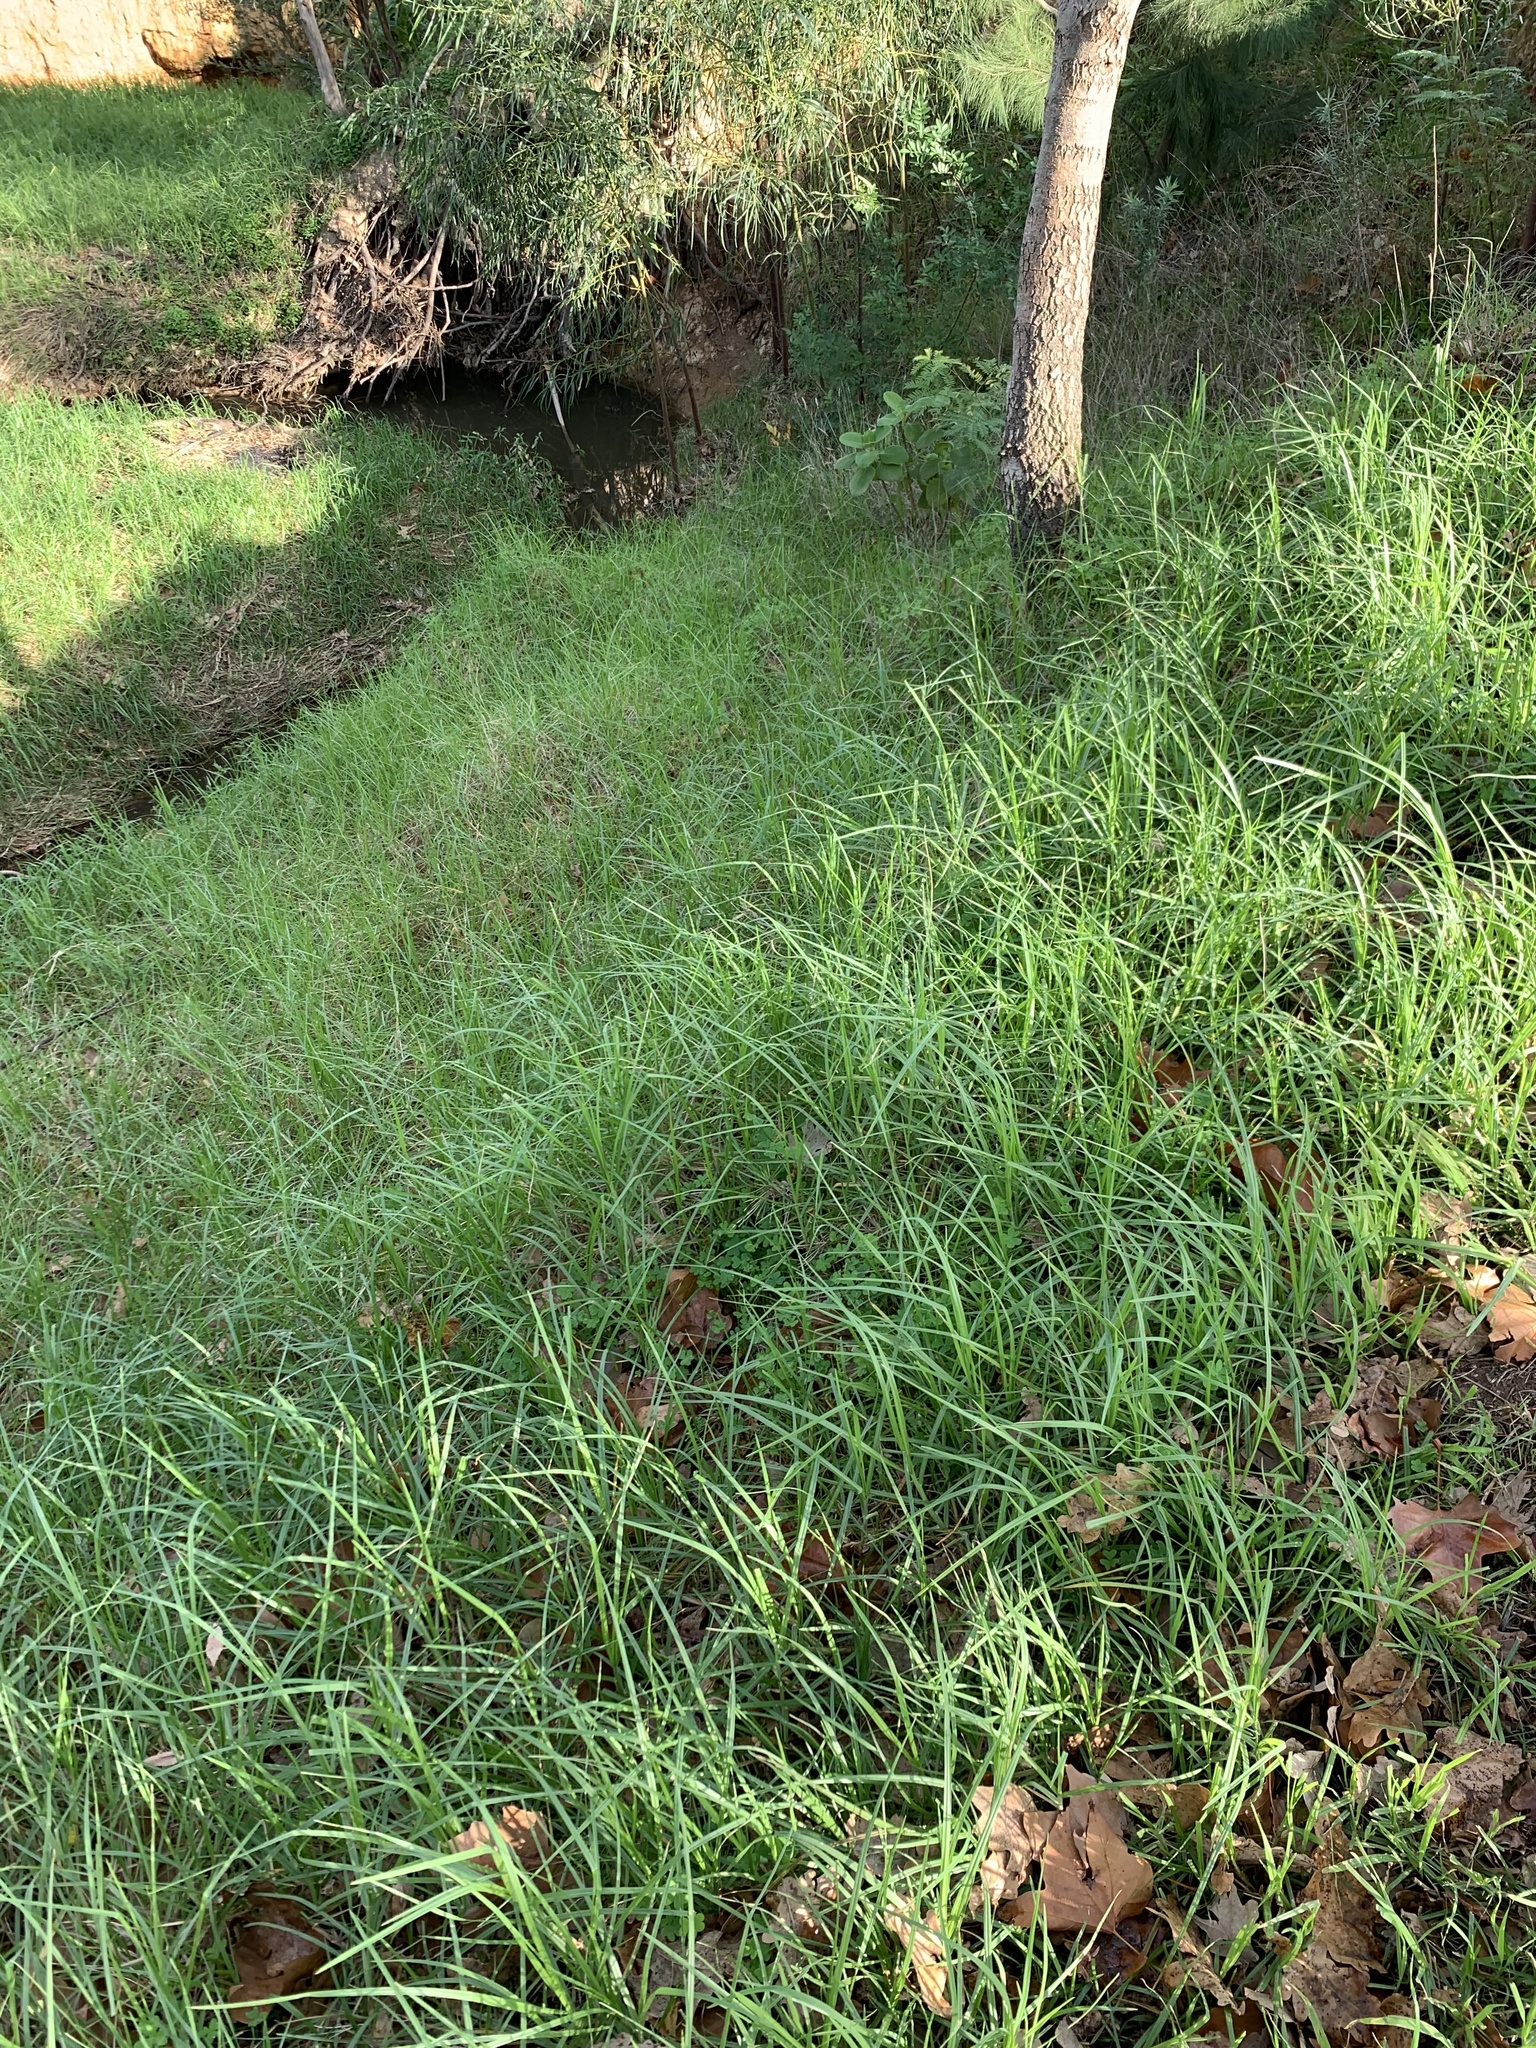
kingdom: Plantae
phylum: Tracheophyta
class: Liliopsida
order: Poales
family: Poaceae
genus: Cenchrus
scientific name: Cenchrus clandestinus
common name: Kikuyugrass
